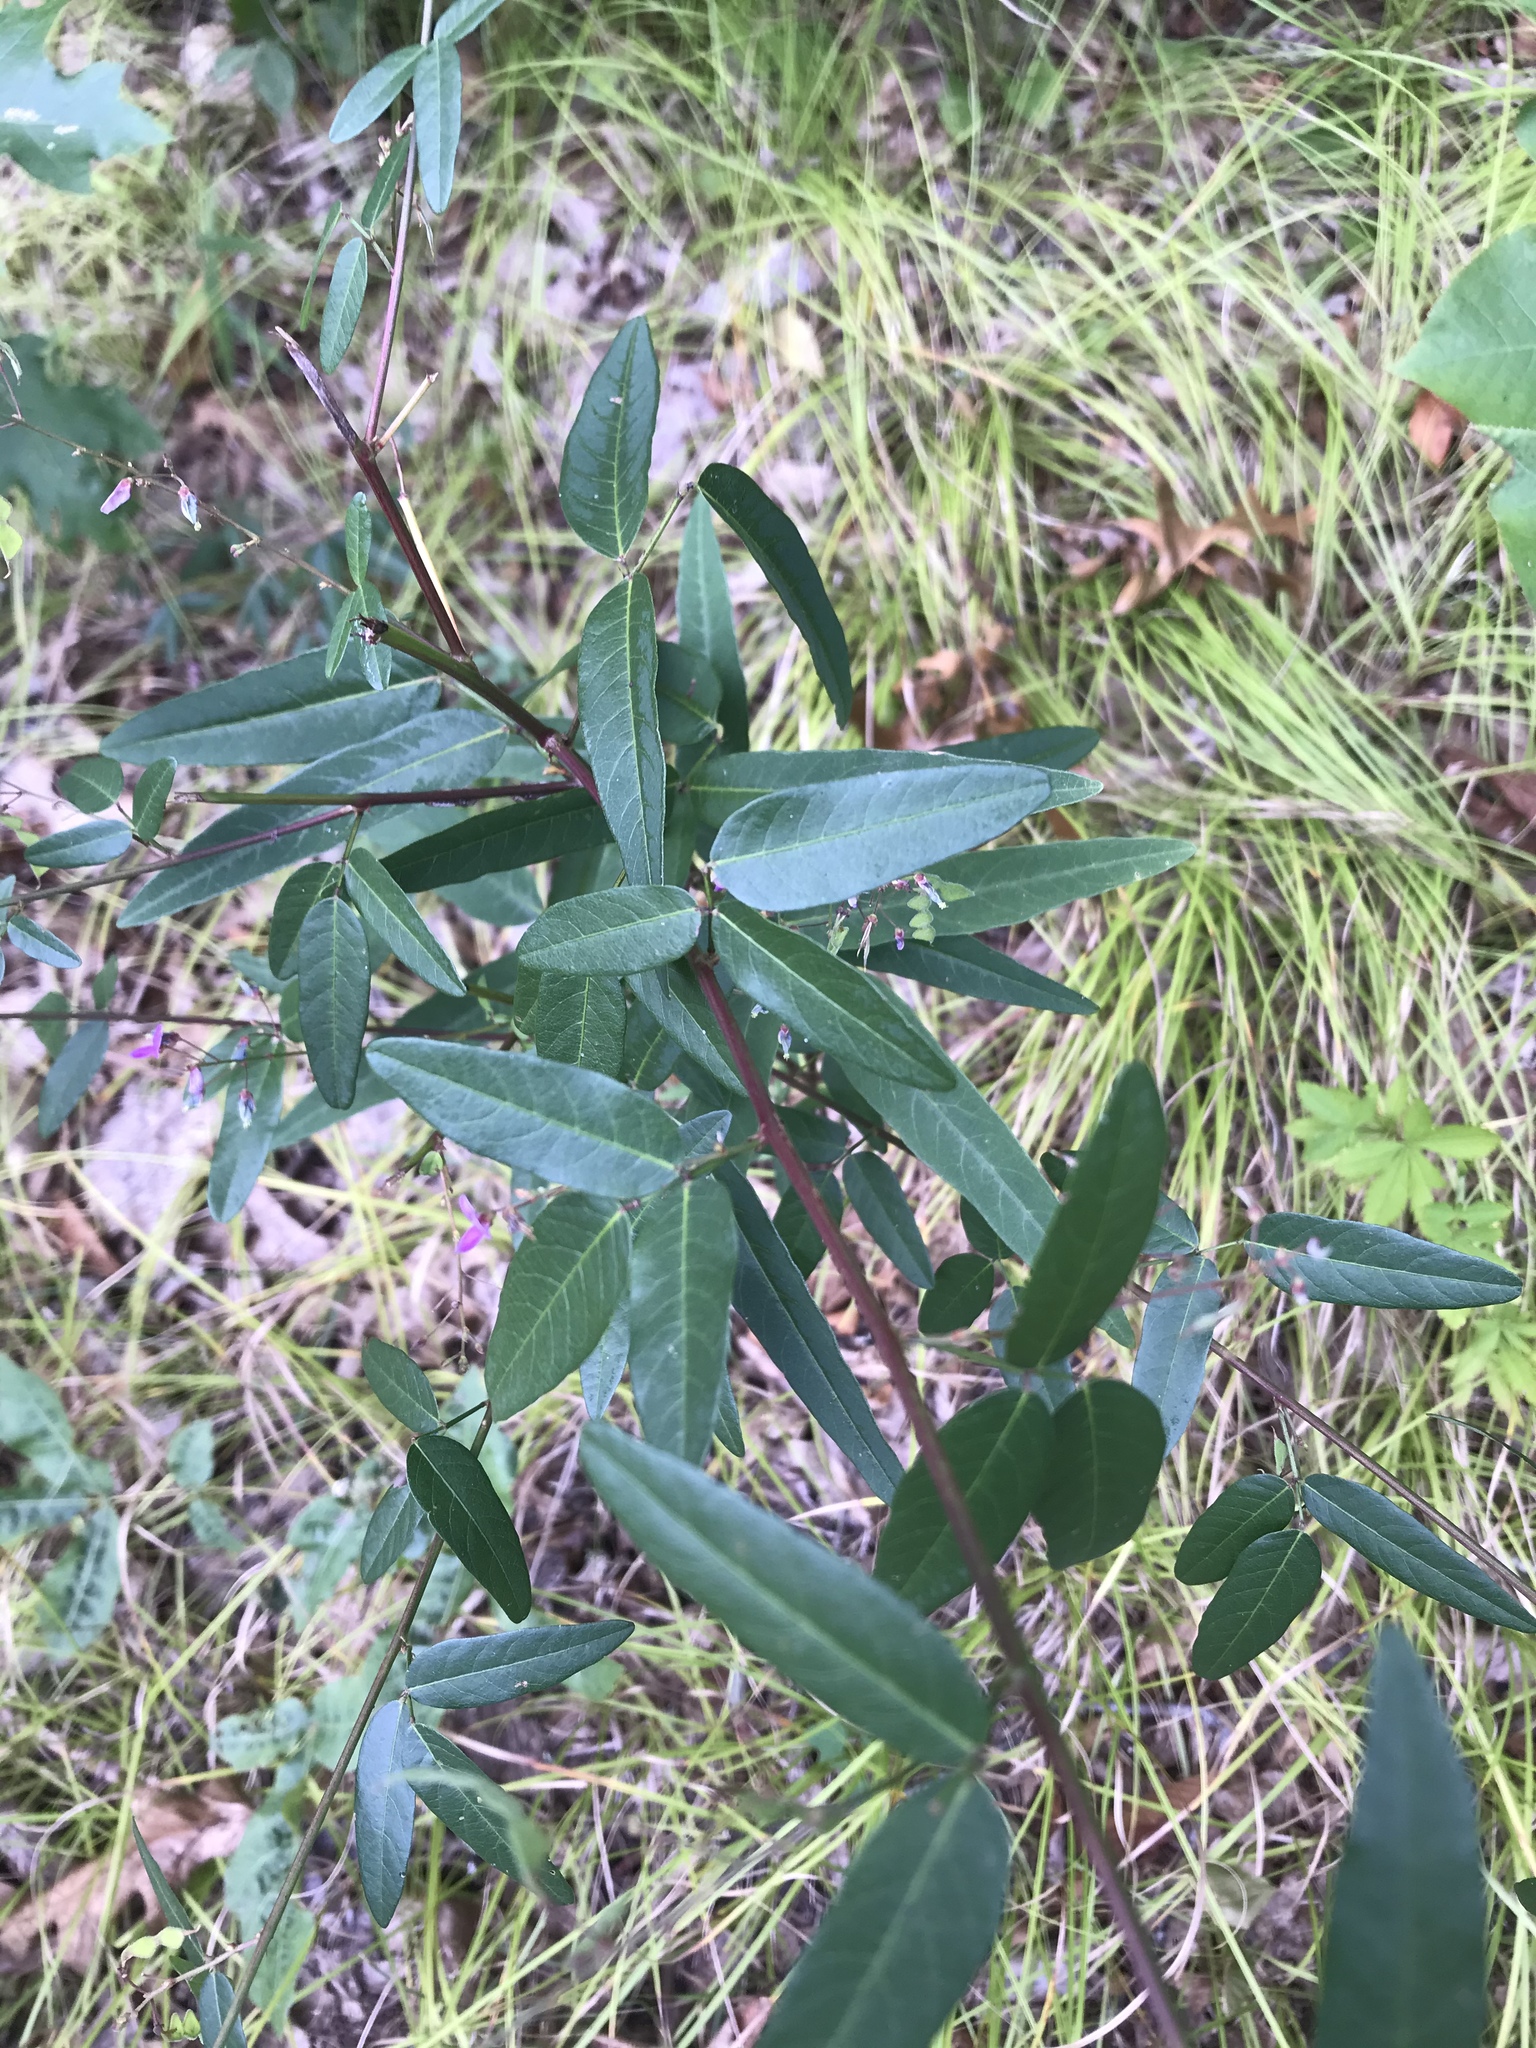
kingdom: Plantae
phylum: Tracheophyta
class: Magnoliopsida
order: Fabales
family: Fabaceae
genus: Desmodium
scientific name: Desmodium paniculatum
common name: Panicled tick-clover
